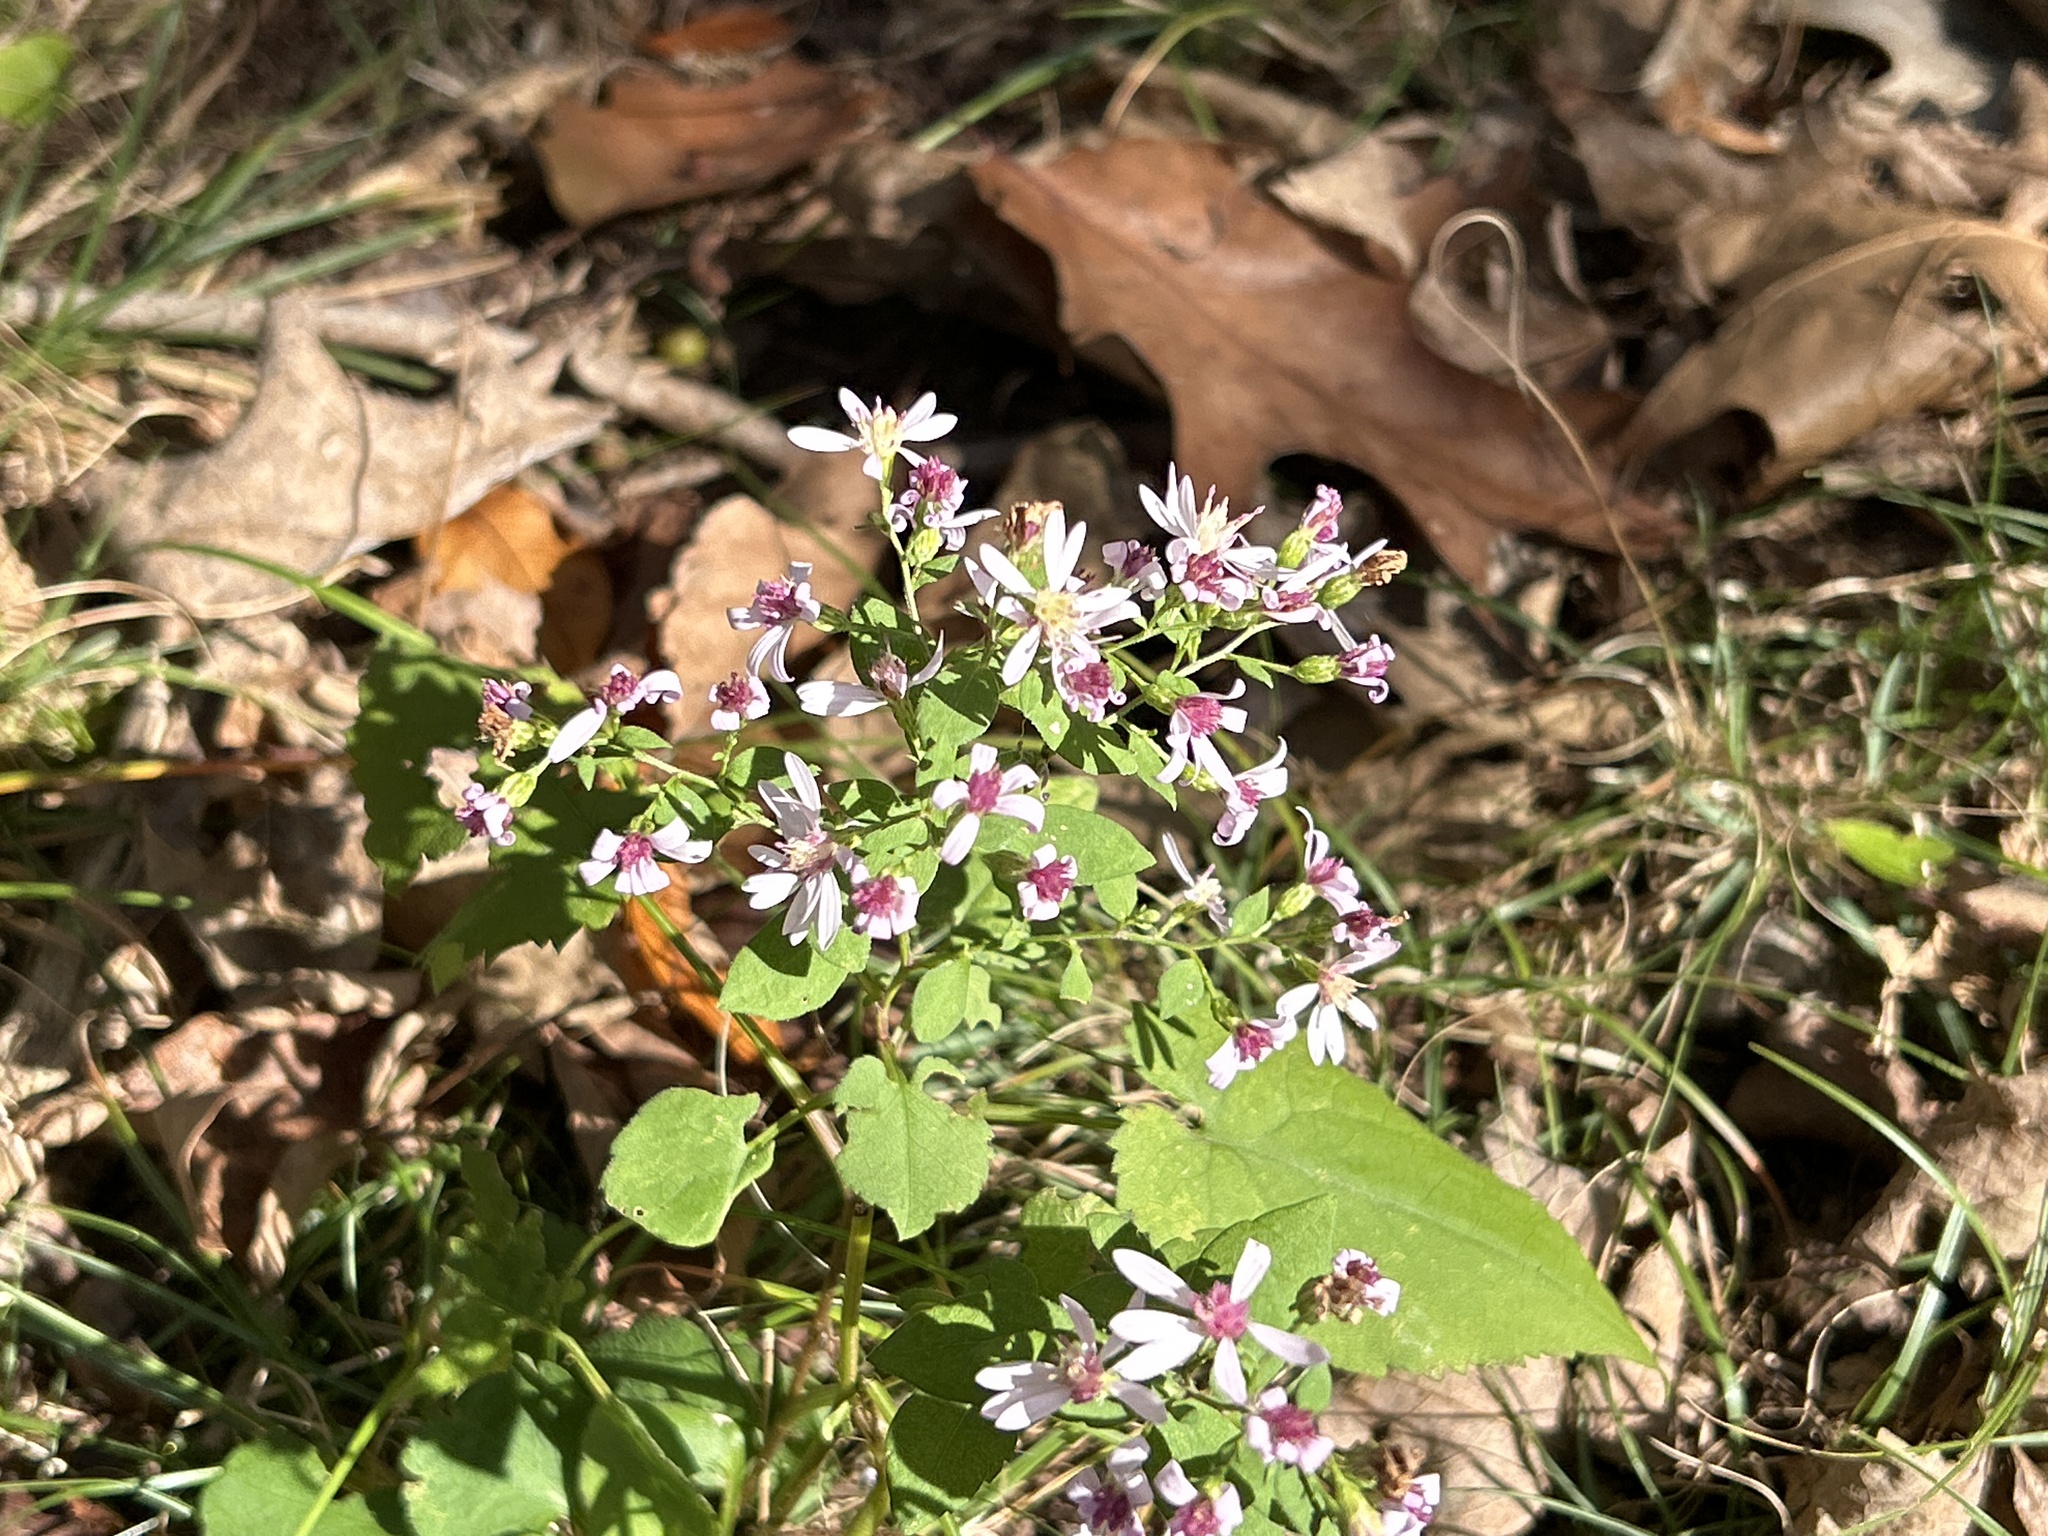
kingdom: Plantae
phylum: Tracheophyta
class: Magnoliopsida
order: Asterales
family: Asteraceae
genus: Symphyotrichum
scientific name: Symphyotrichum cordifolium
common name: Beeweed
